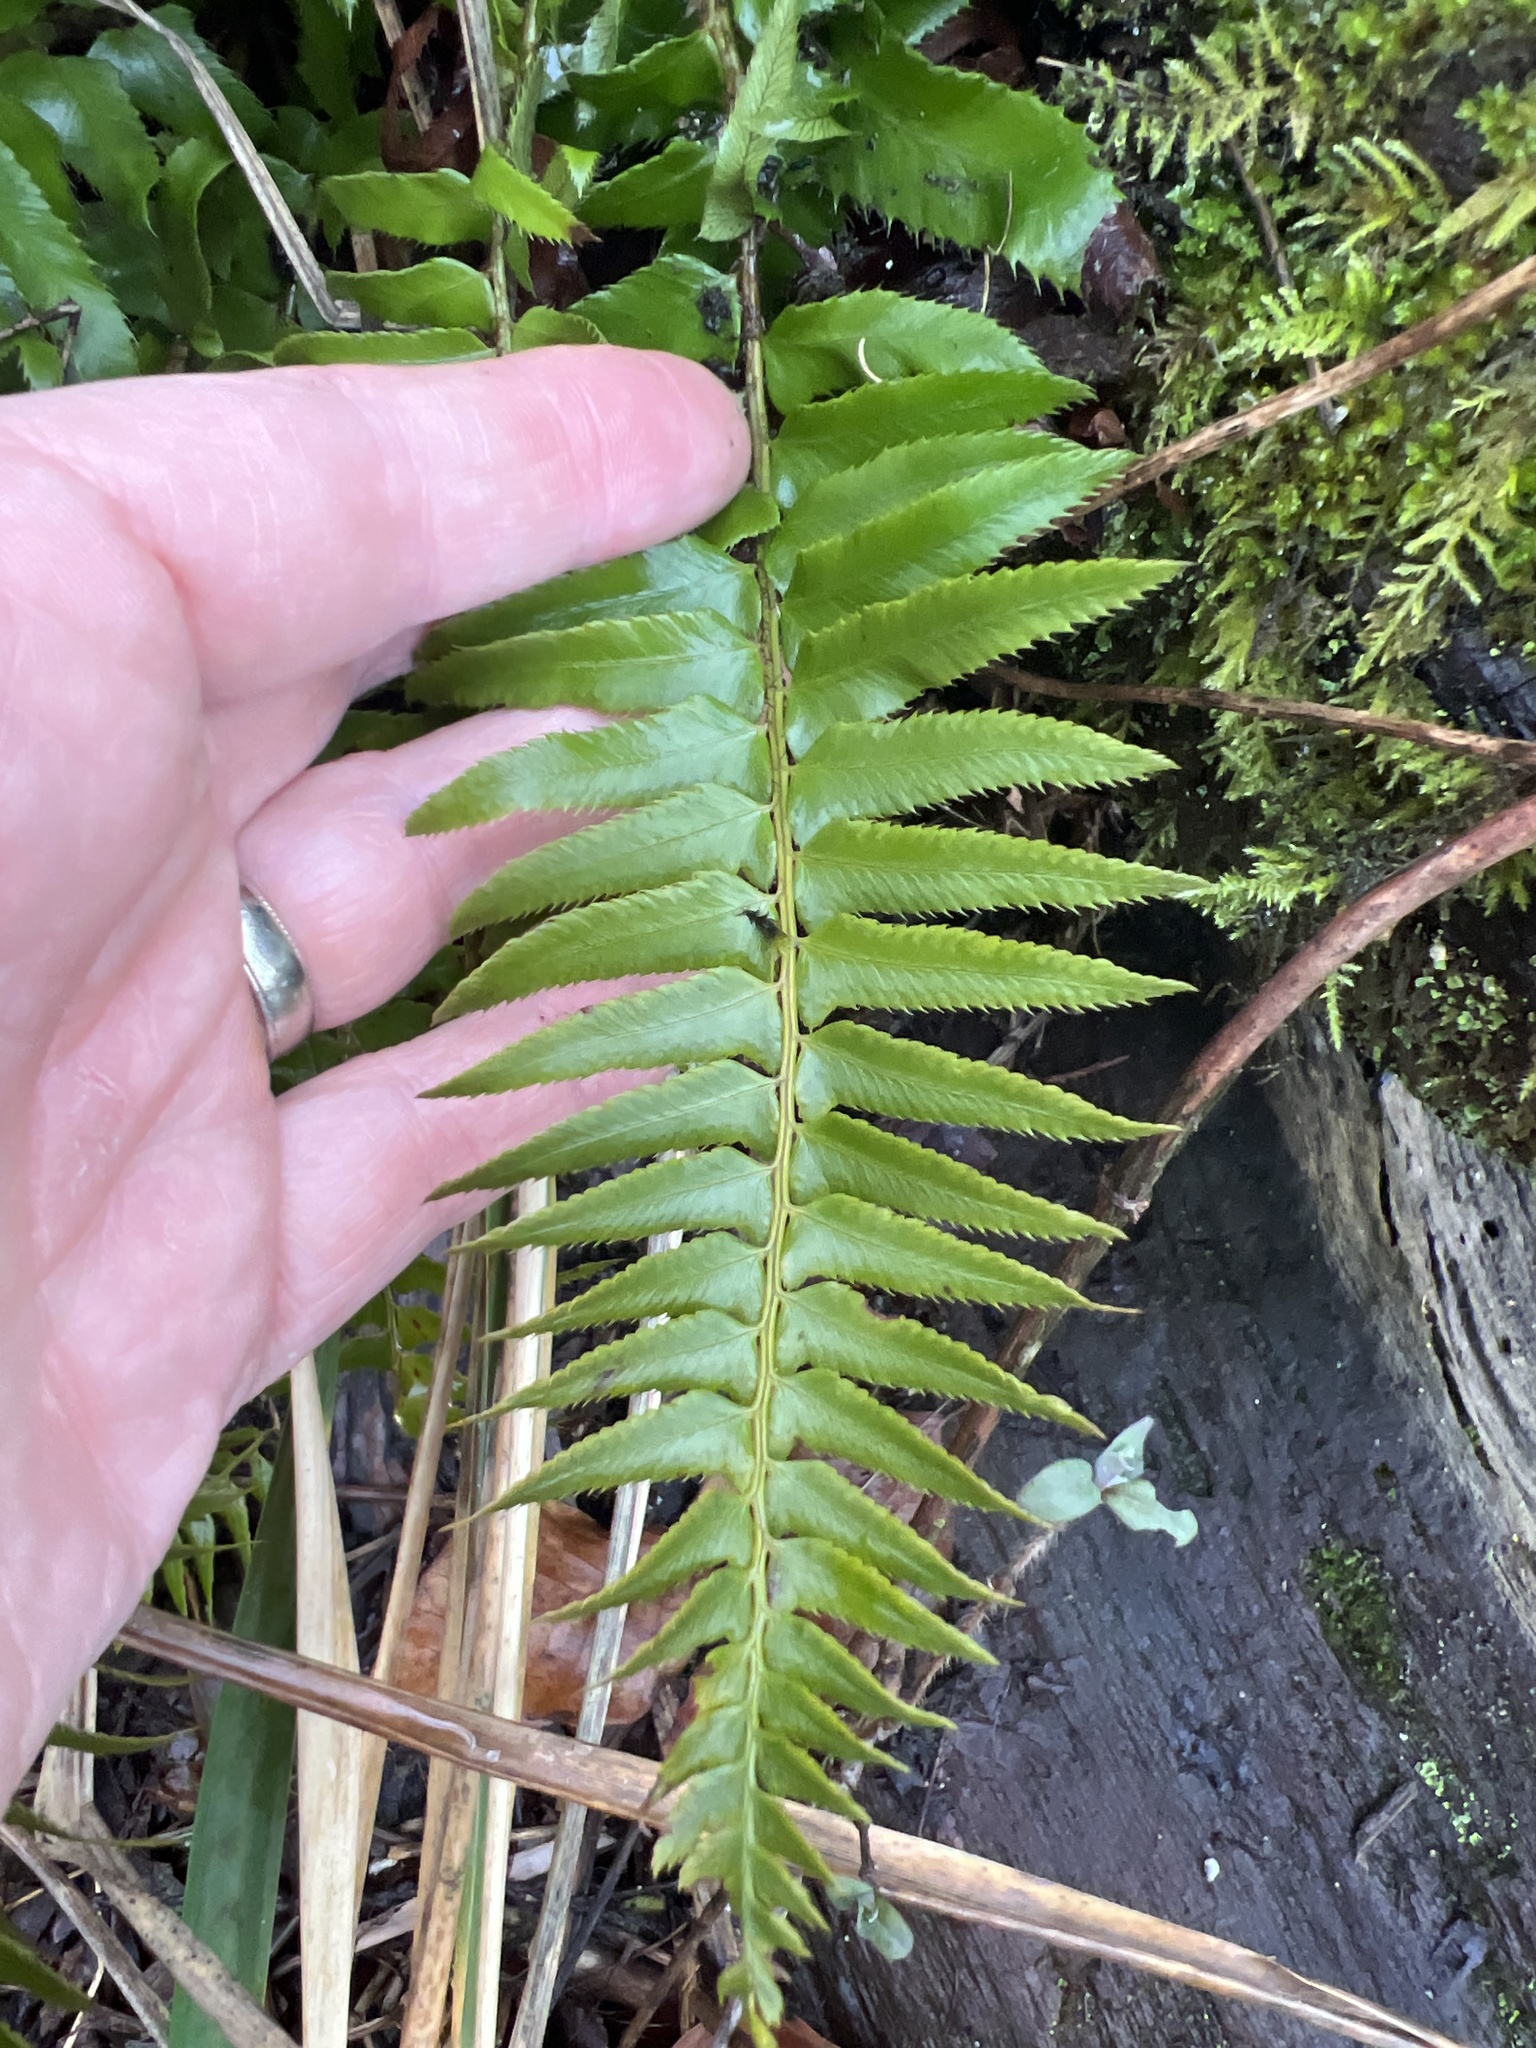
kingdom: Plantae
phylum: Tracheophyta
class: Polypodiopsida
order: Polypodiales
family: Dryopteridaceae
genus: Polystichum
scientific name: Polystichum munitum
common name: Western sword-fern
